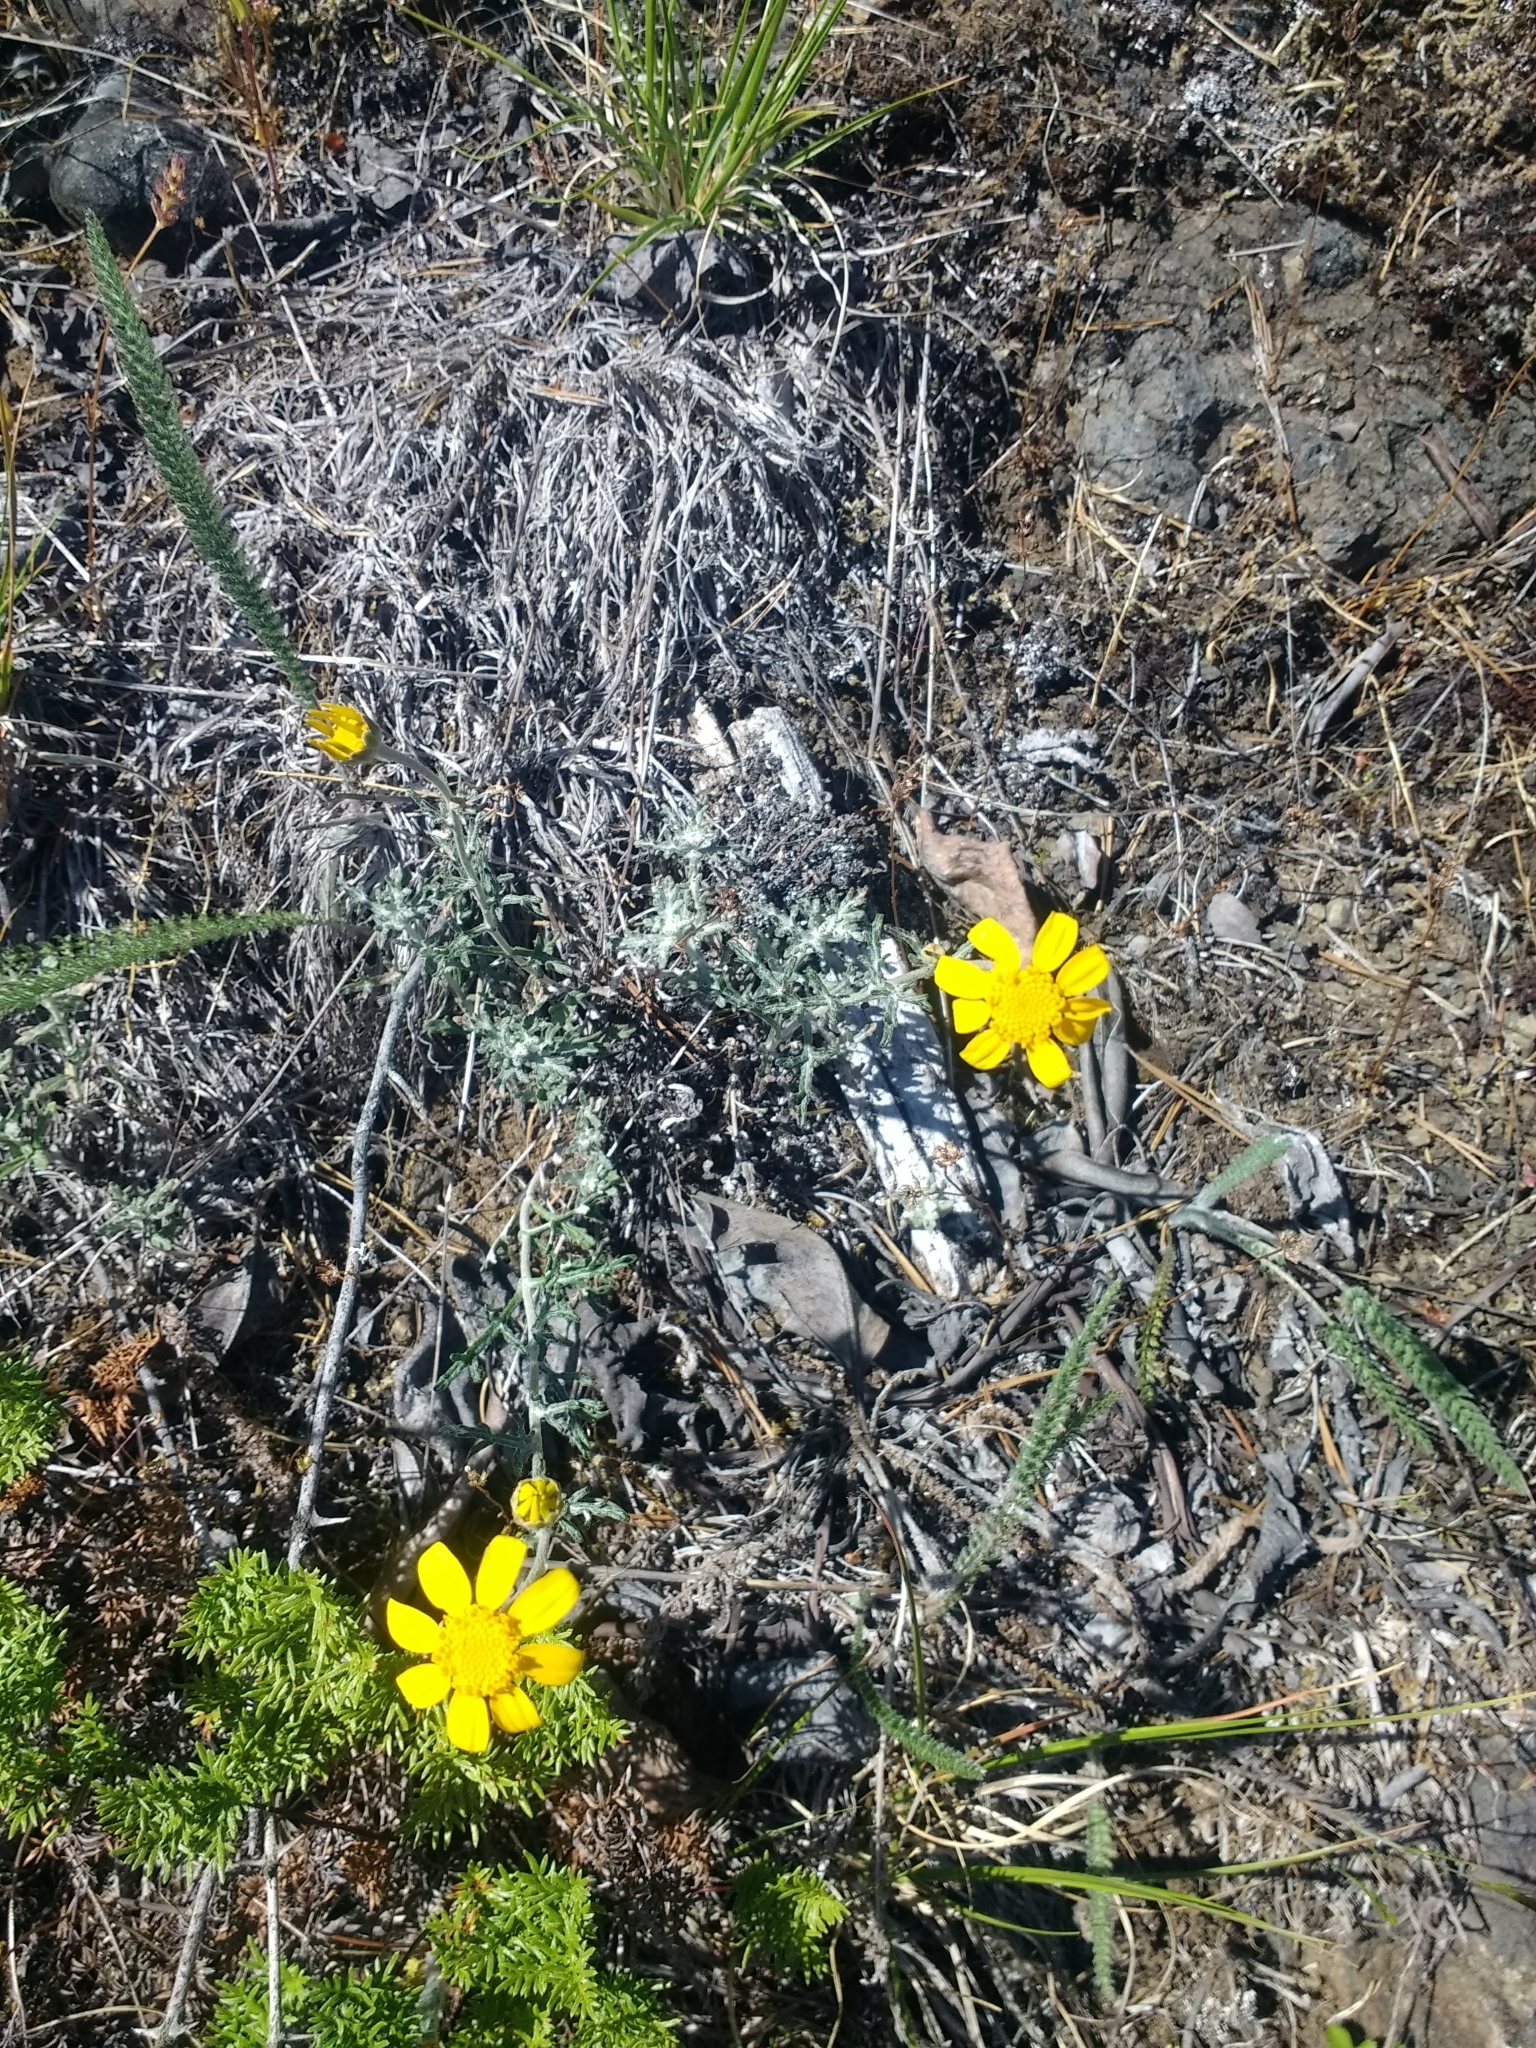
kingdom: Plantae
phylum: Tracheophyta
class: Magnoliopsida
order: Asterales
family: Asteraceae
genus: Eriophyllum
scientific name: Eriophyllum lanatum
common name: Common woolly-sunflower
